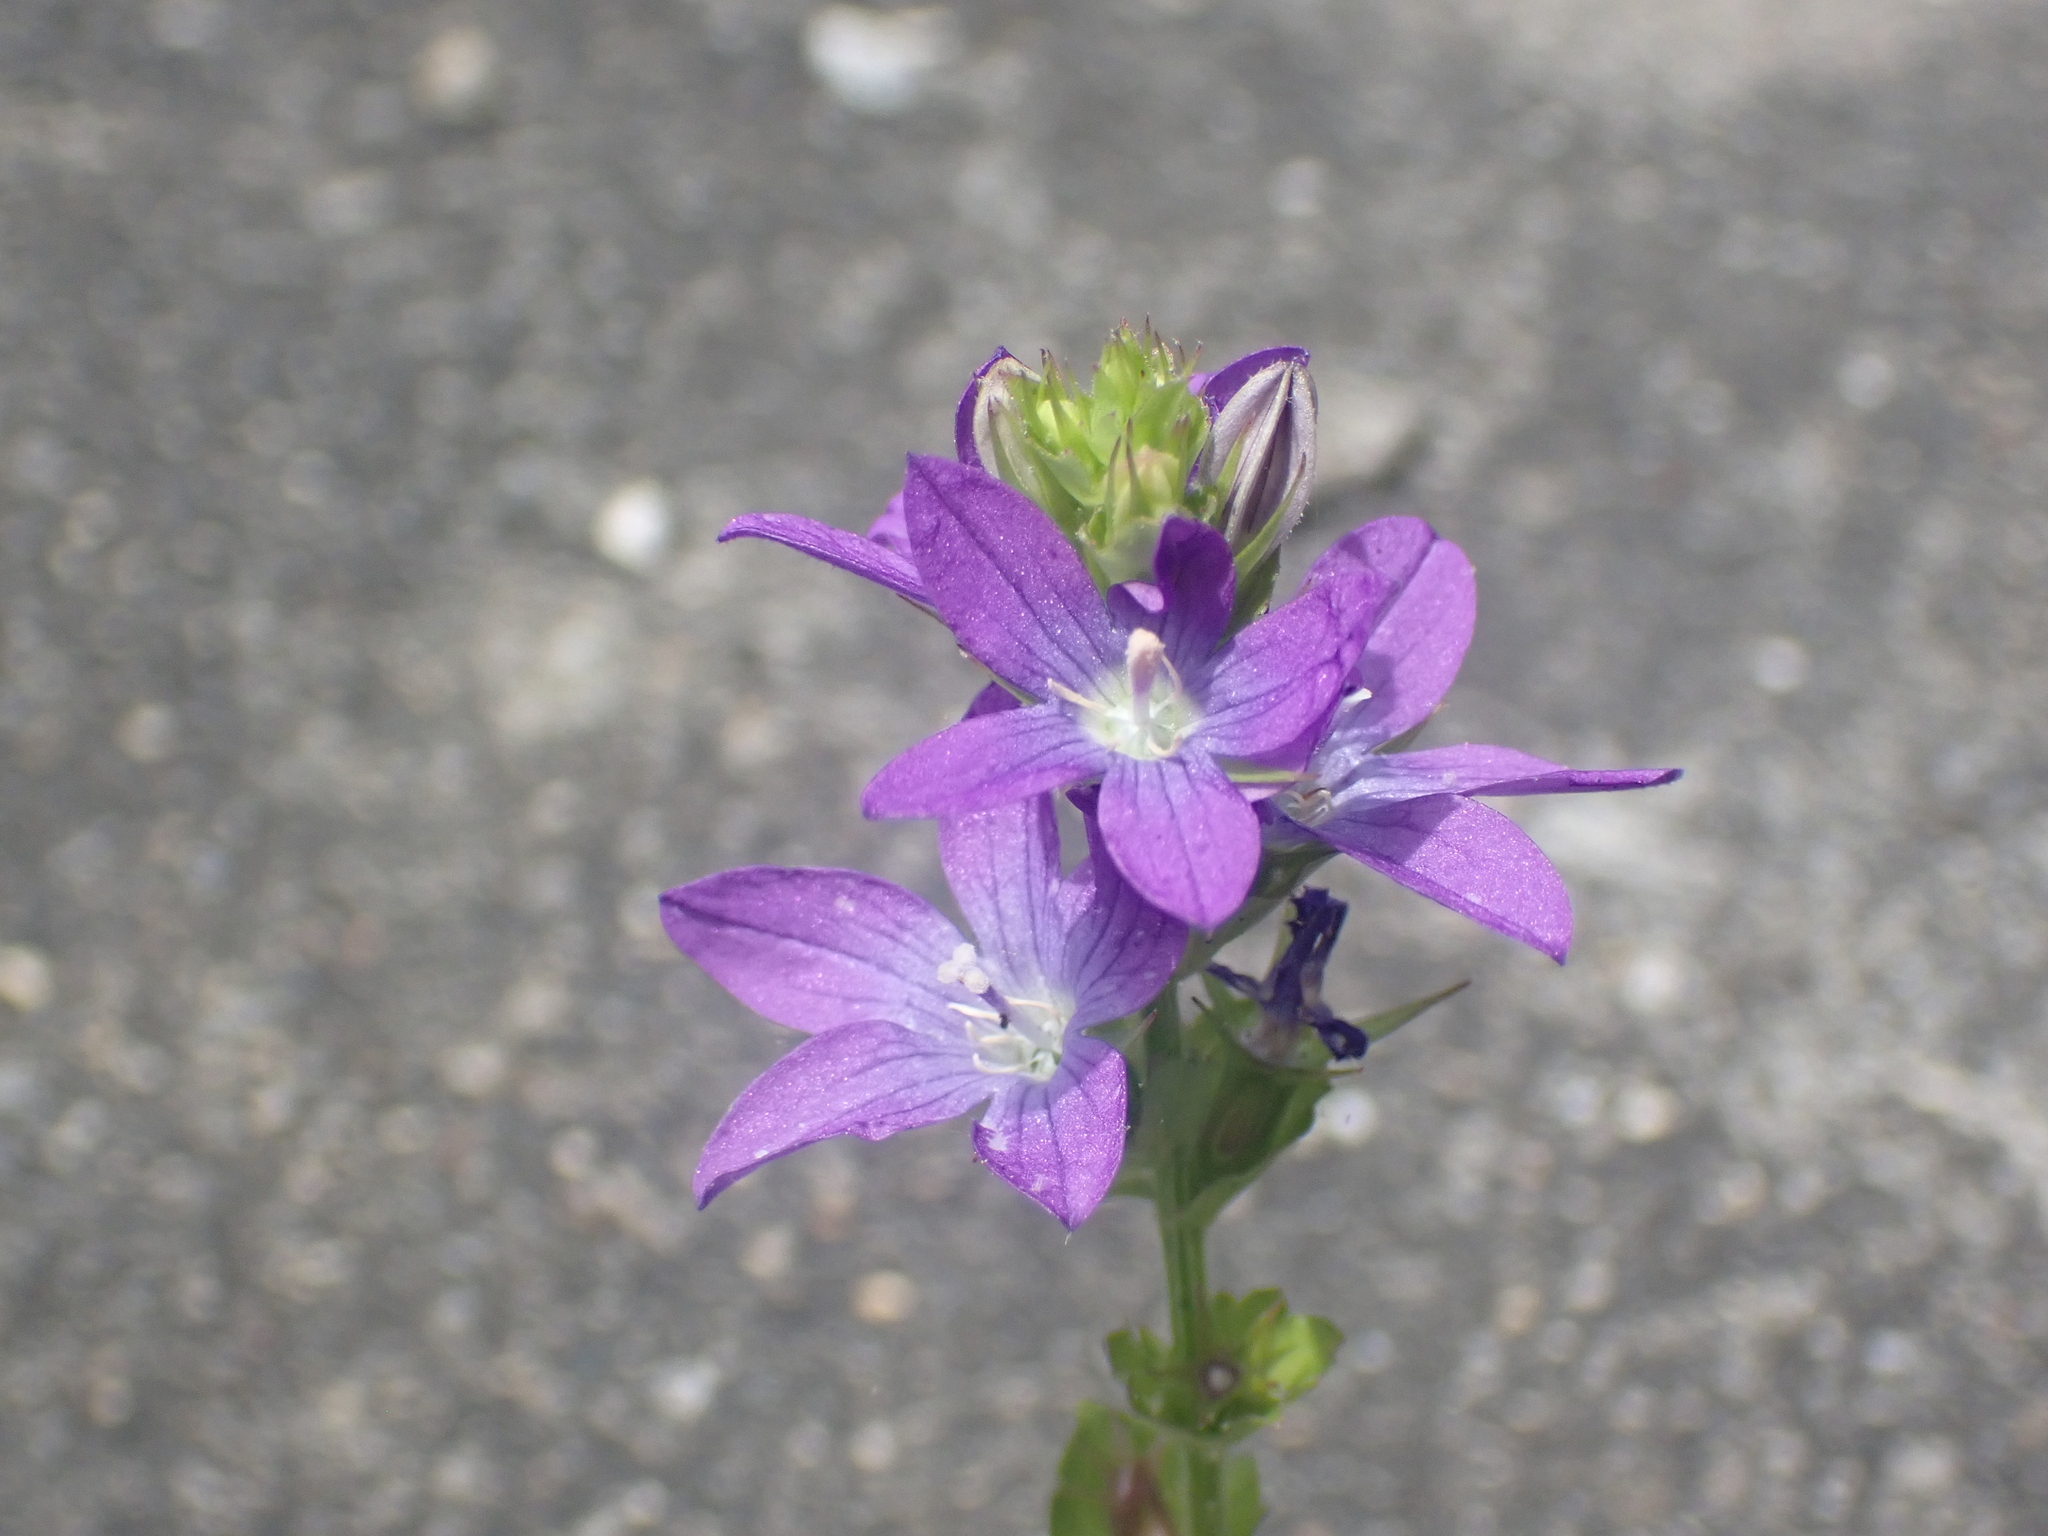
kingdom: Plantae
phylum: Tracheophyta
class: Magnoliopsida
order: Asterales
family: Campanulaceae
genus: Triodanis
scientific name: Triodanis perfoliata
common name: Clasping venus' looking-glass
